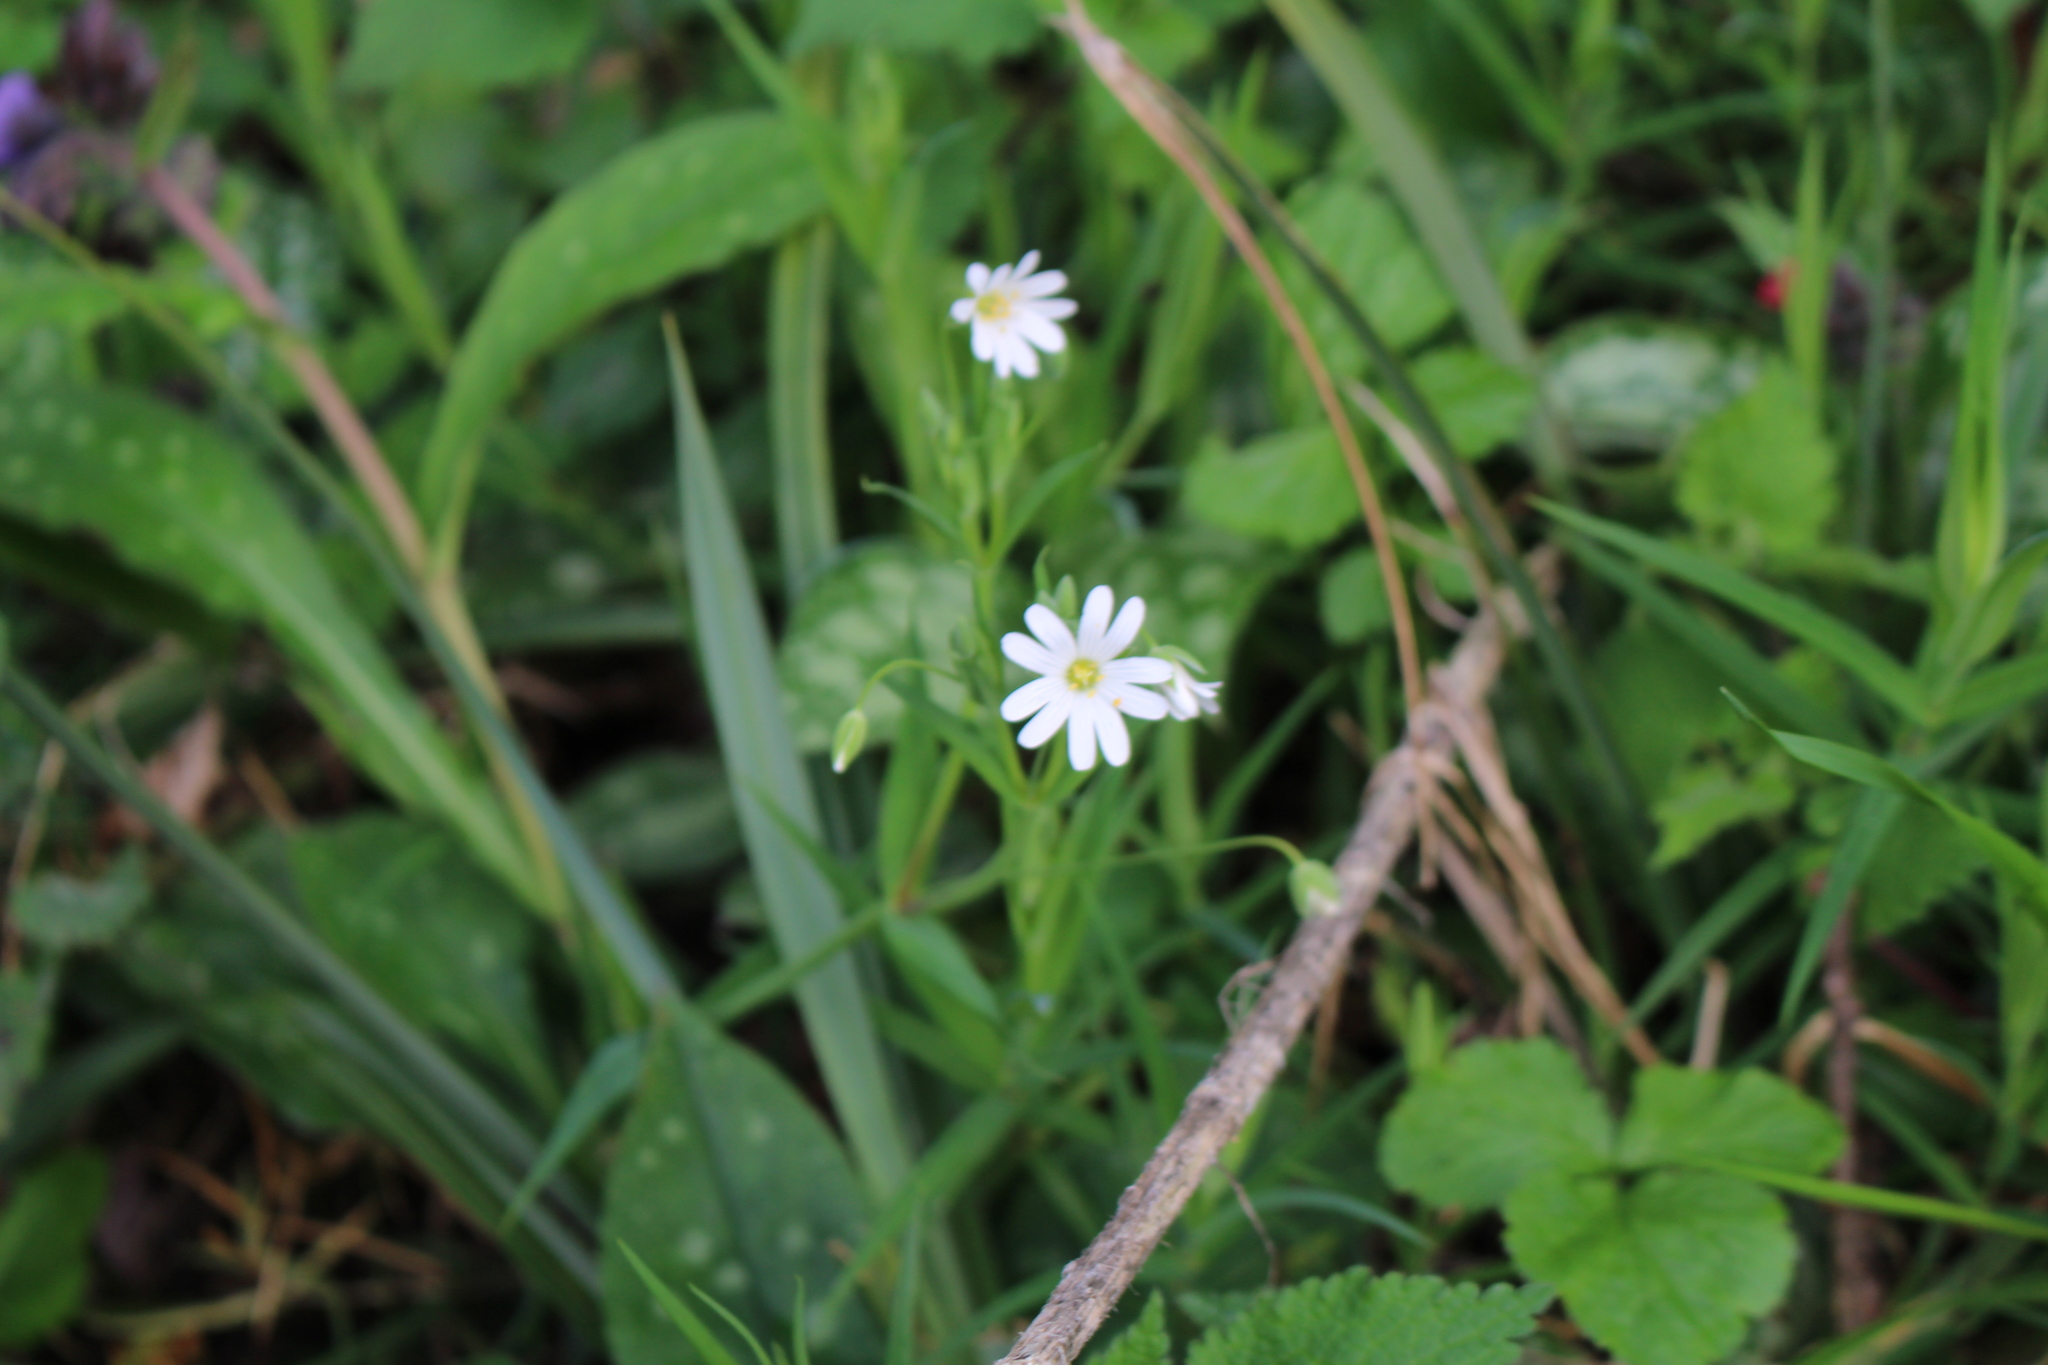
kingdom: Plantae
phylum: Tracheophyta
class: Magnoliopsida
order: Caryophyllales
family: Caryophyllaceae
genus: Rabelera
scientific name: Rabelera holostea
